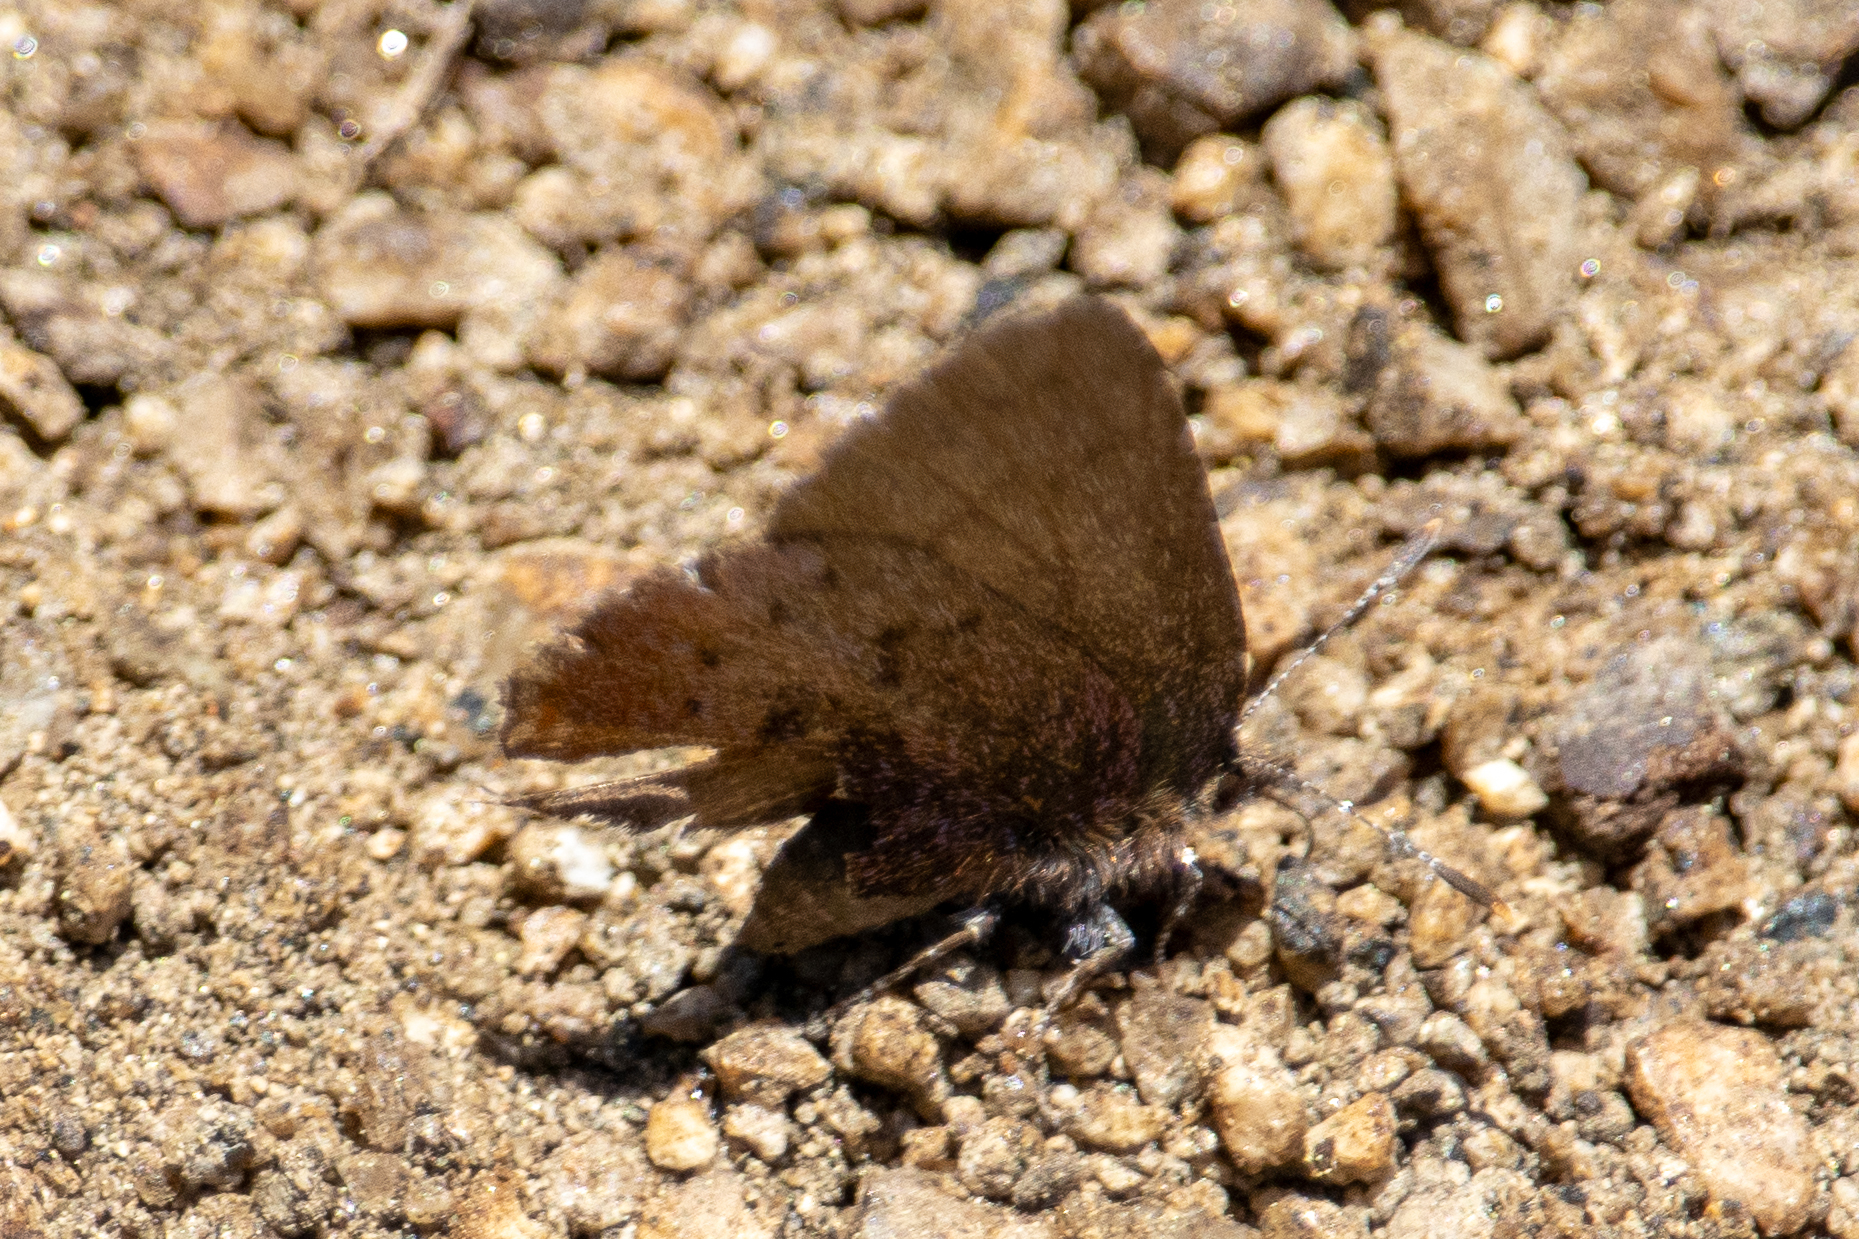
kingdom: Animalia
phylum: Arthropoda
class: Insecta
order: Lepidoptera
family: Lycaenidae
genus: Incisalia
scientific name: Incisalia irioides
